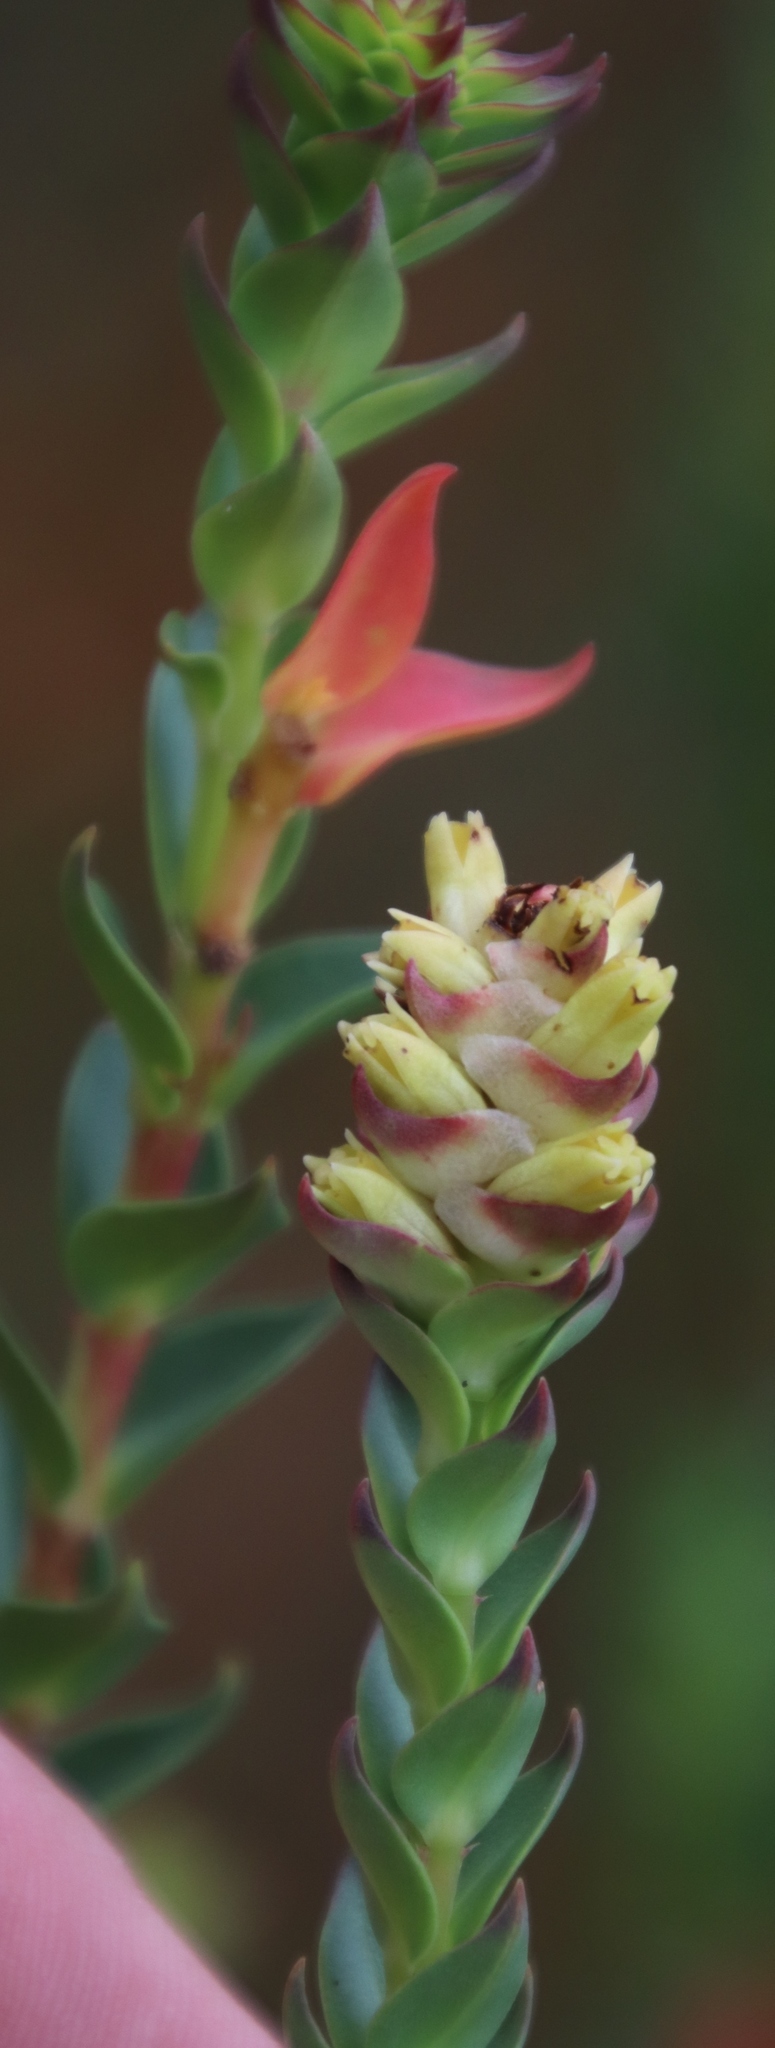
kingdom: Plantae
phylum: Tracheophyta
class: Magnoliopsida
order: Myrtales
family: Penaeaceae
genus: Penaea
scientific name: Penaea cneorum
